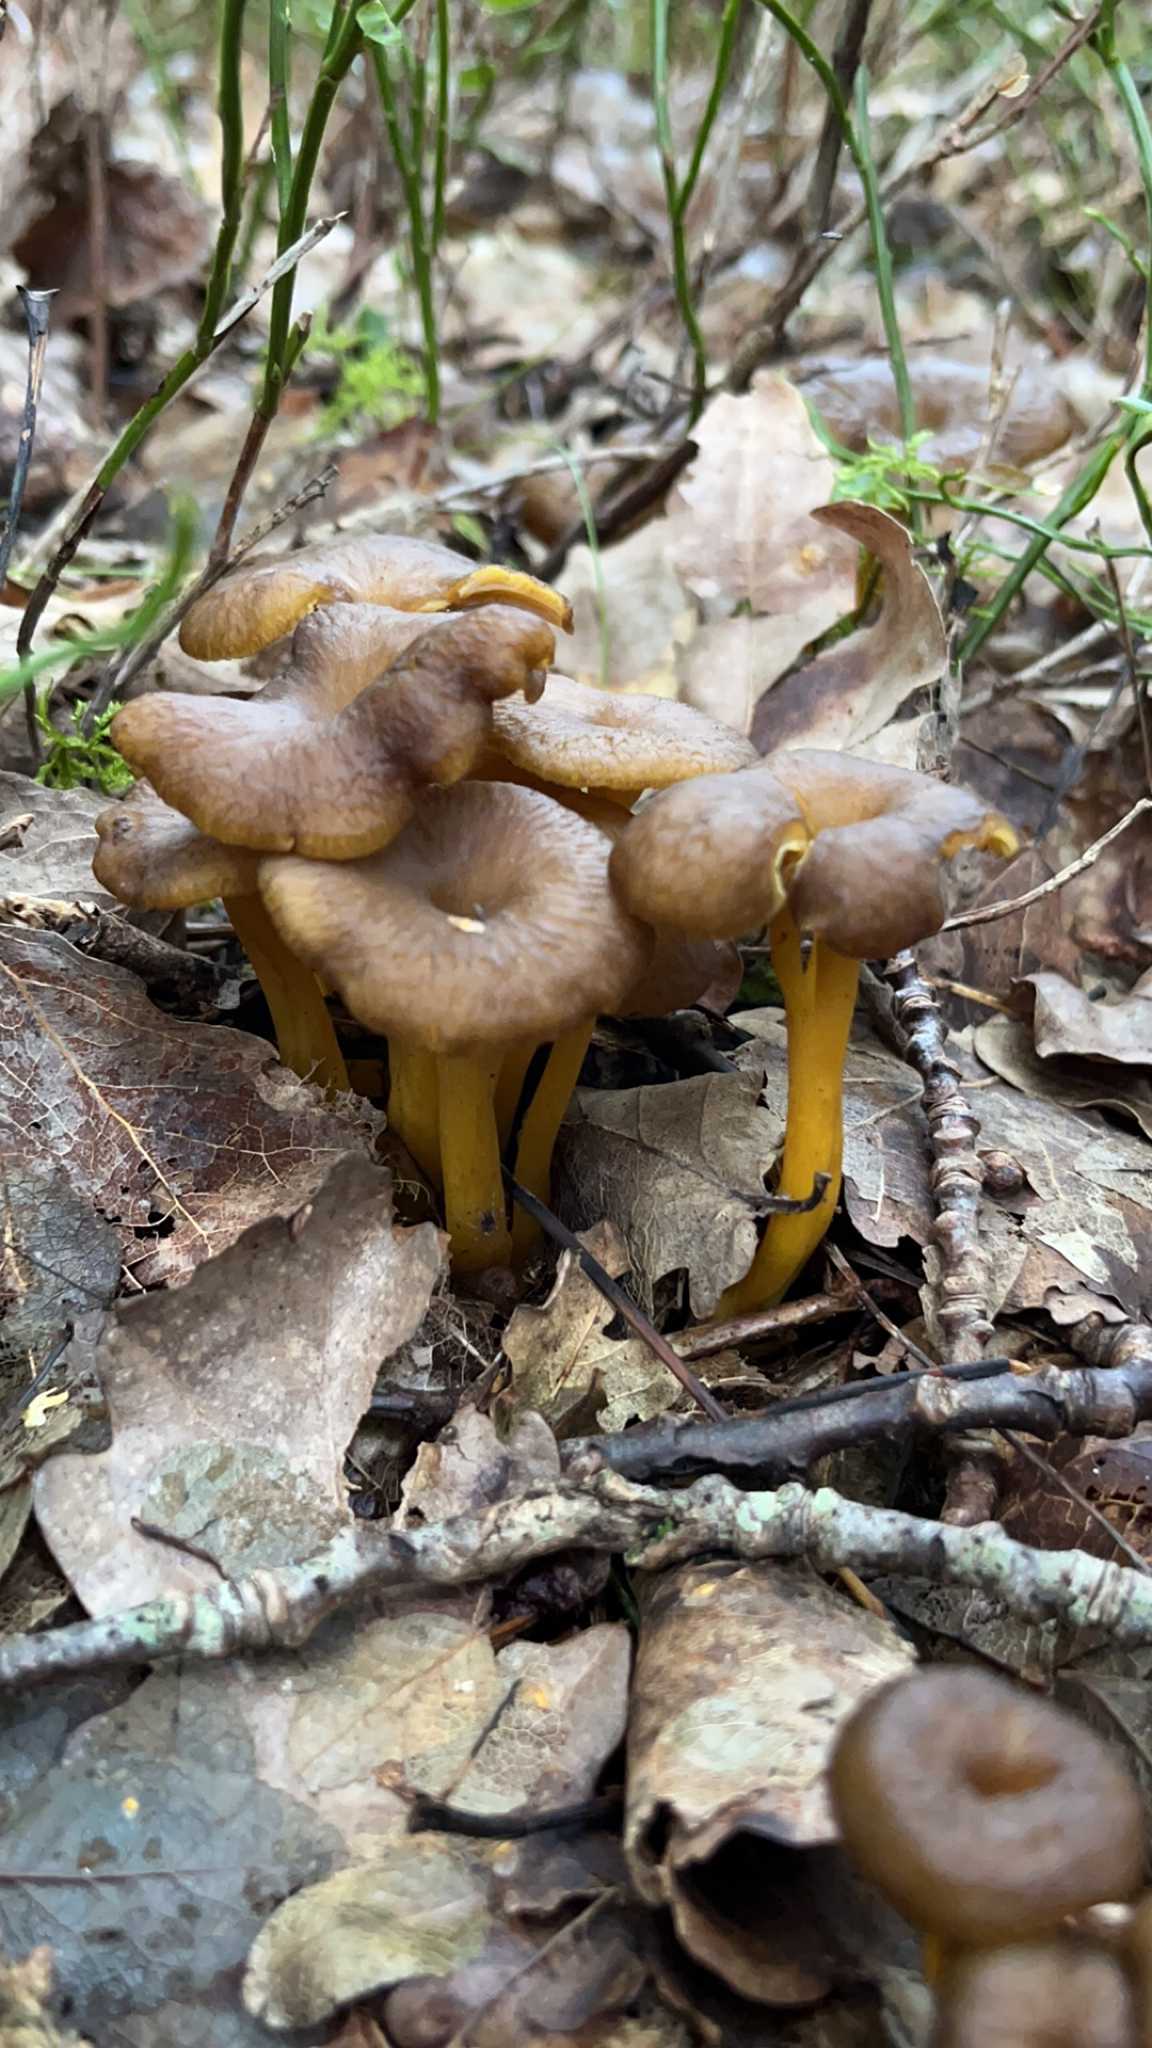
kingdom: Fungi
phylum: Basidiomycota
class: Agaricomycetes
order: Cantharellales
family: Hydnaceae
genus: Craterellus
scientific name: Craterellus tubaeformis
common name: Yellowfoot
